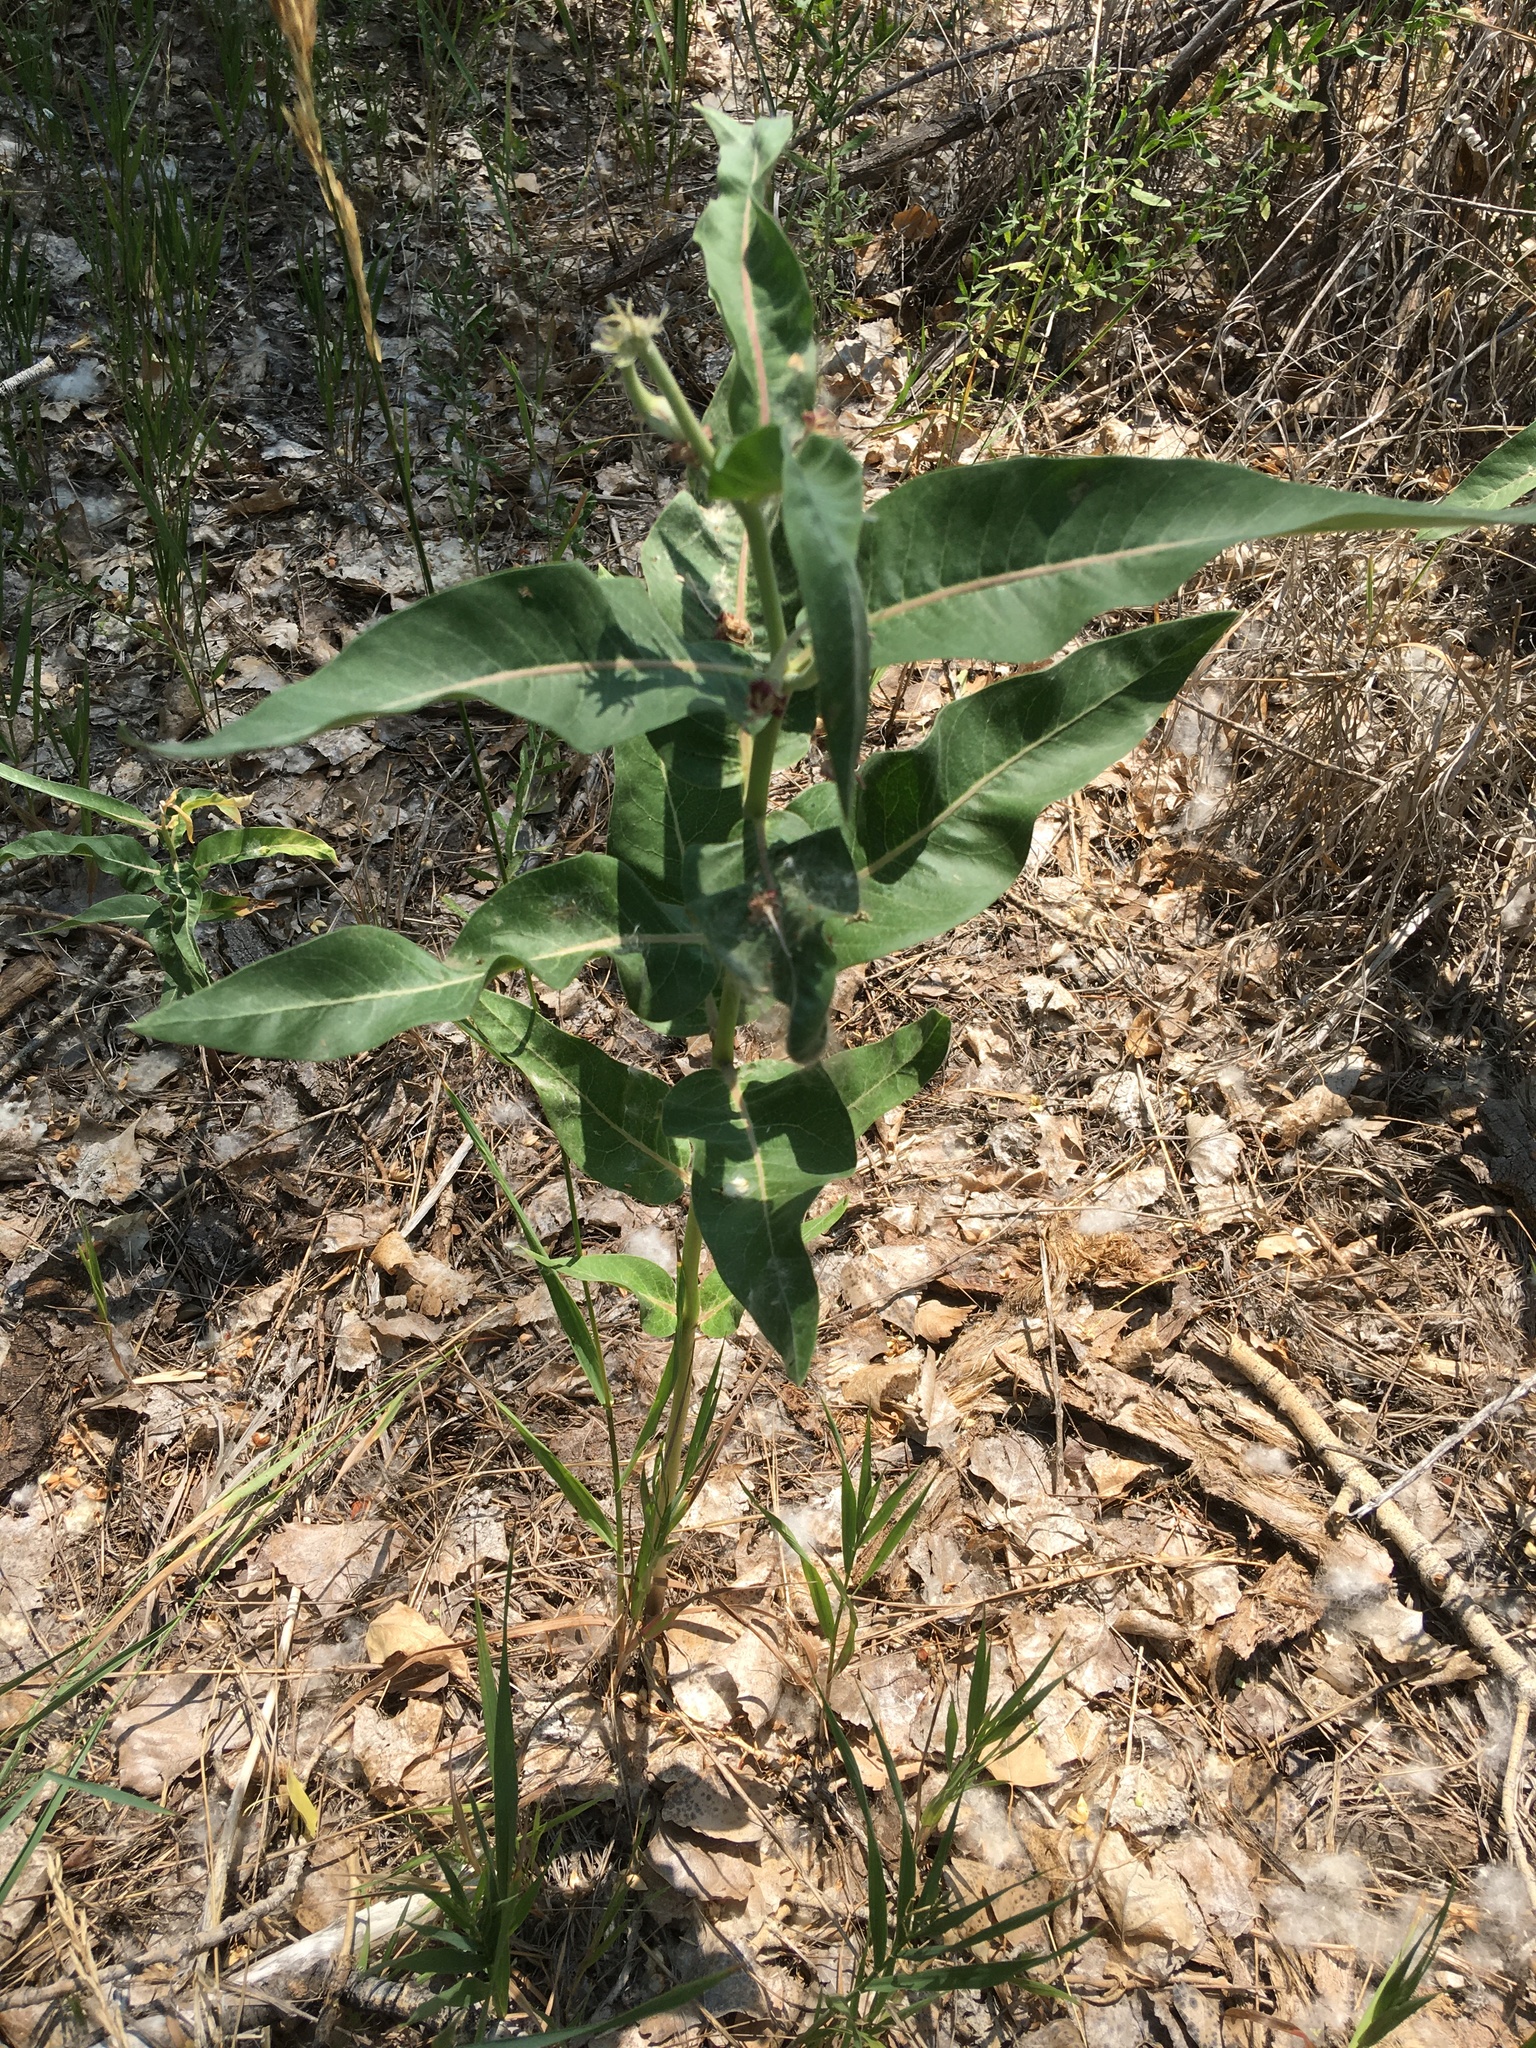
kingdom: Plantae
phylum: Tracheophyta
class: Magnoliopsida
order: Gentianales
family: Apocynaceae
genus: Asclepias
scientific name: Asclepias speciosa
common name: Showy milkweed
